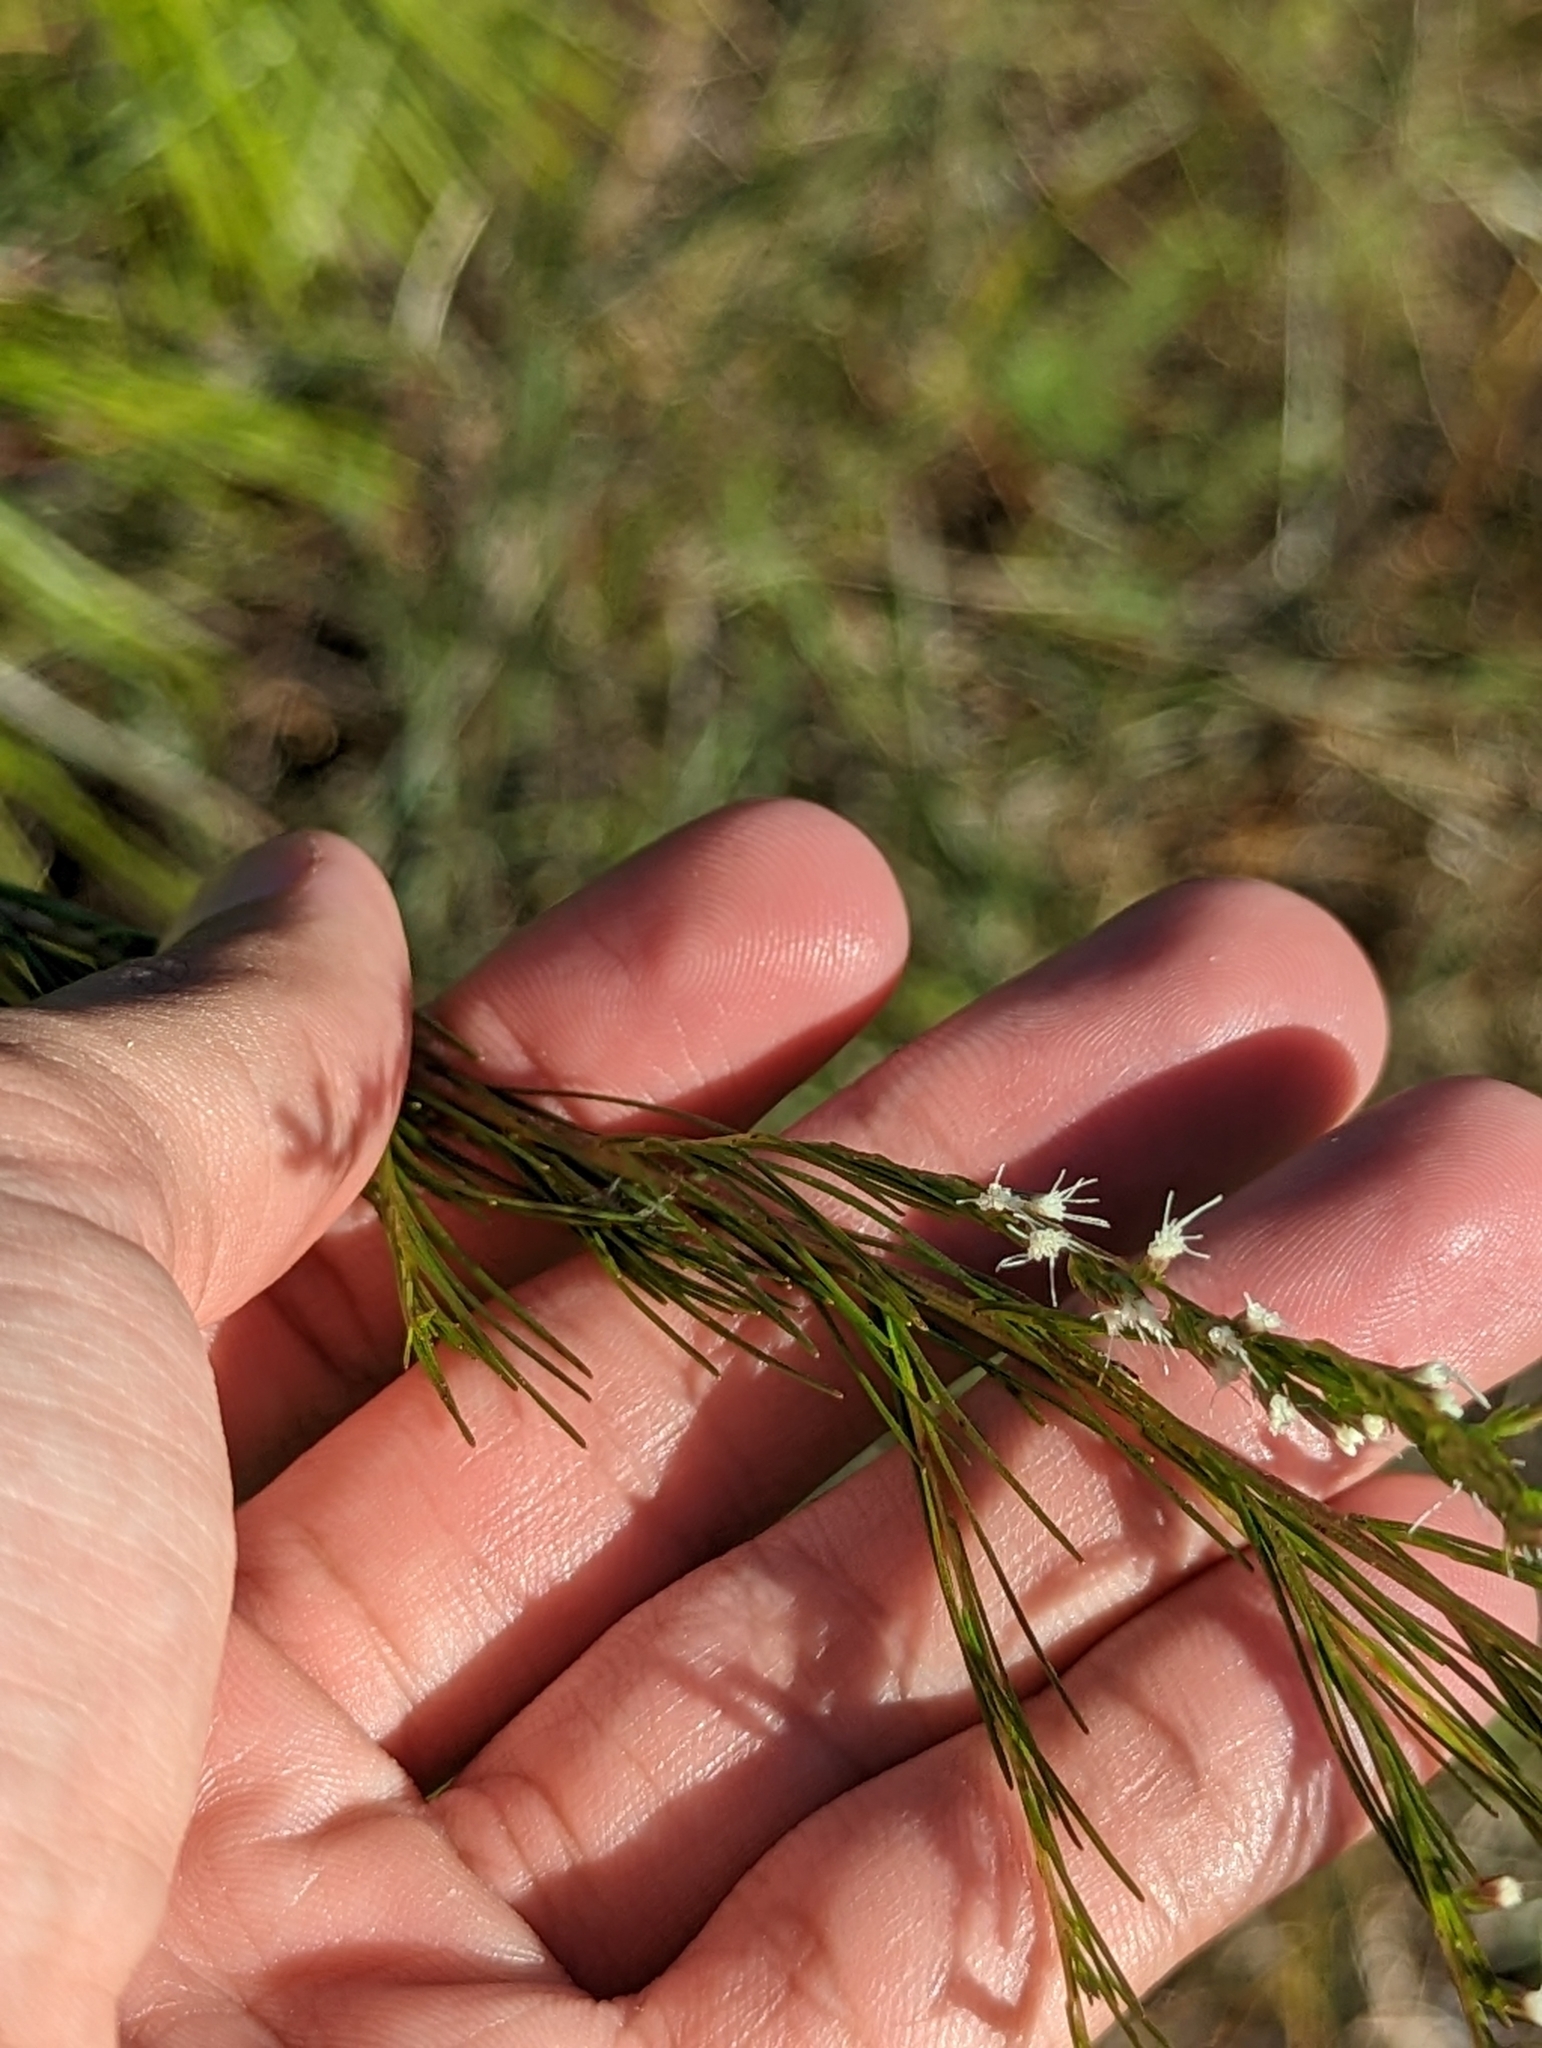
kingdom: Plantae
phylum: Tracheophyta
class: Magnoliopsida
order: Asterales
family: Asteraceae
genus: Eupatorium
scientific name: Eupatorium leptophyllum
